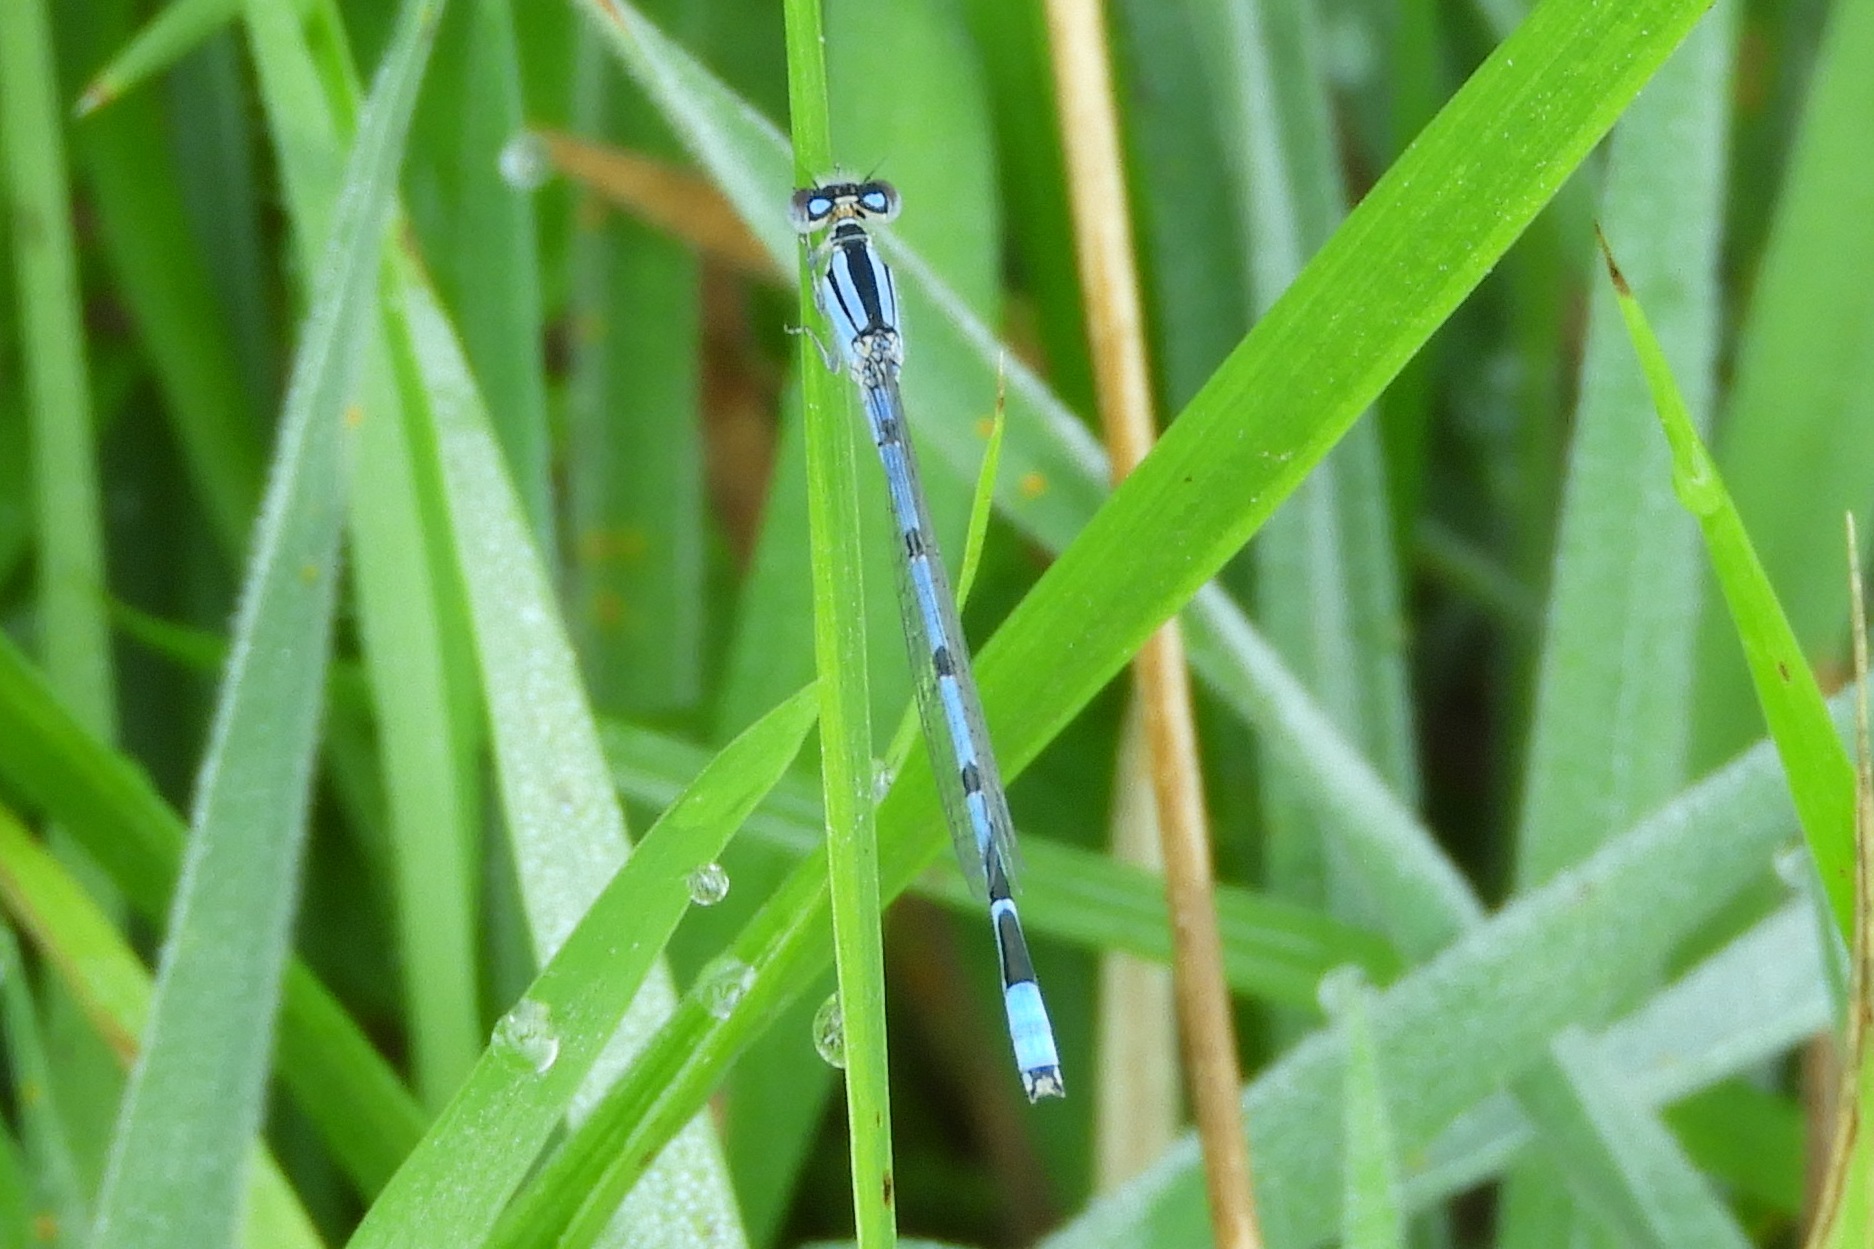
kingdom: Animalia
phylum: Arthropoda
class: Insecta
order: Odonata
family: Coenagrionidae
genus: Enallagma
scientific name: Enallagma civile
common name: Damselfly
